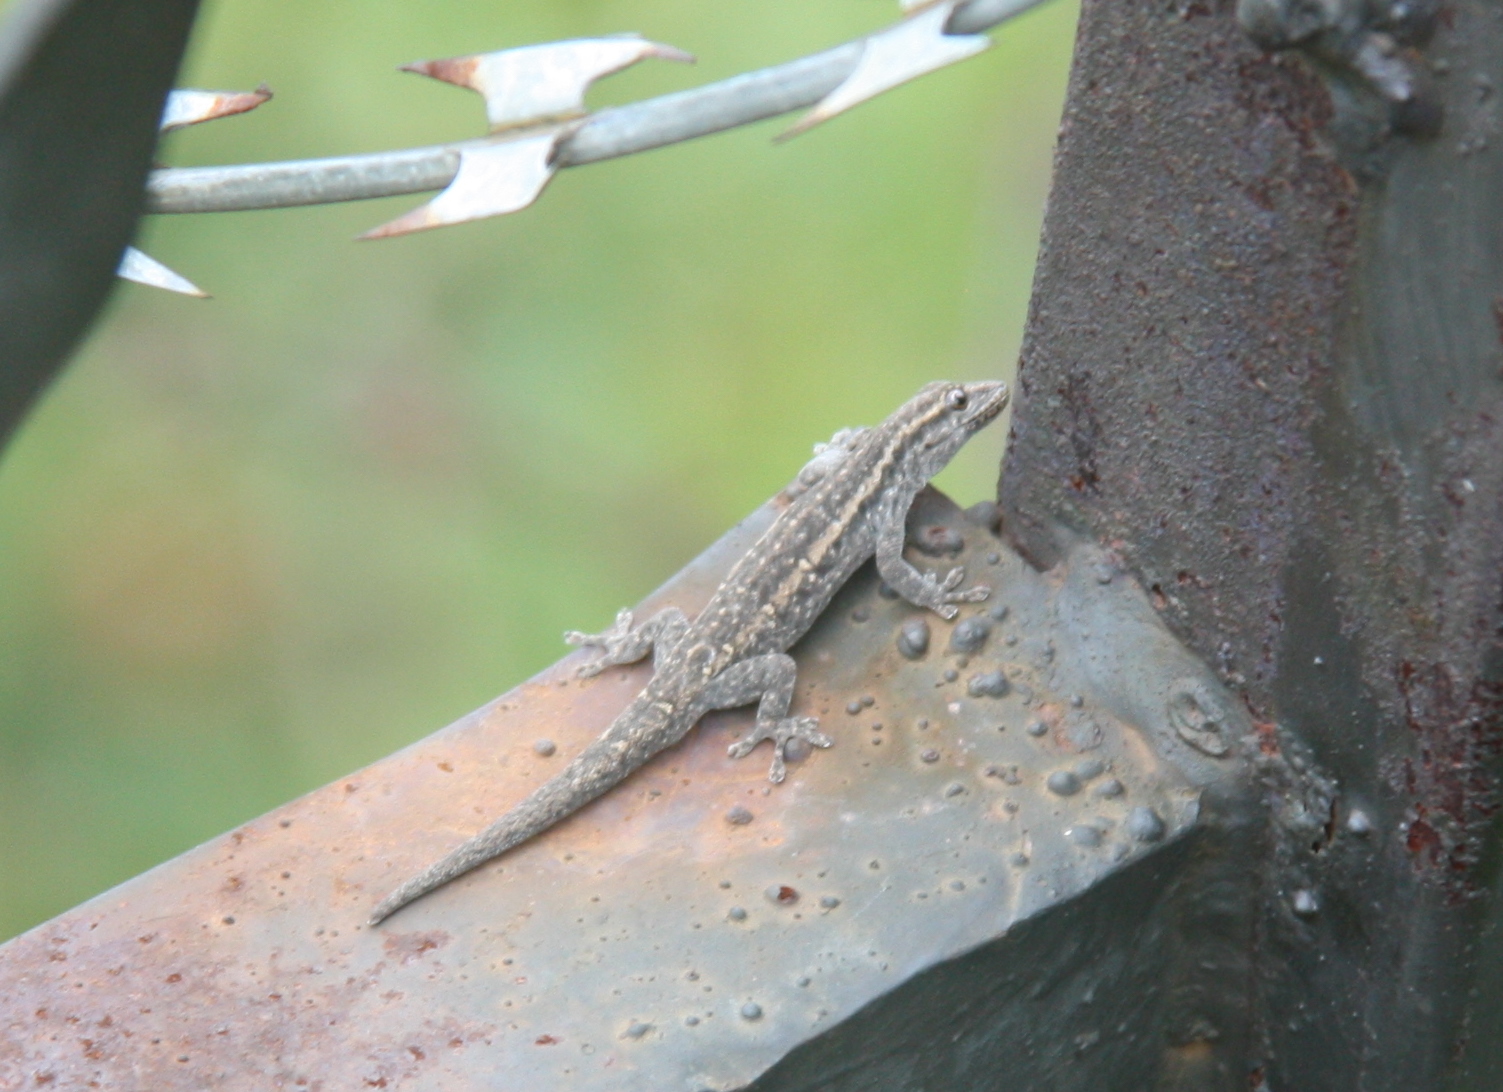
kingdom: Animalia
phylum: Chordata
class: Squamata
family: Gekkonidae
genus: Lygodactylus
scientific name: Lygodactylus capensis
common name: Cape dwarf gecko
